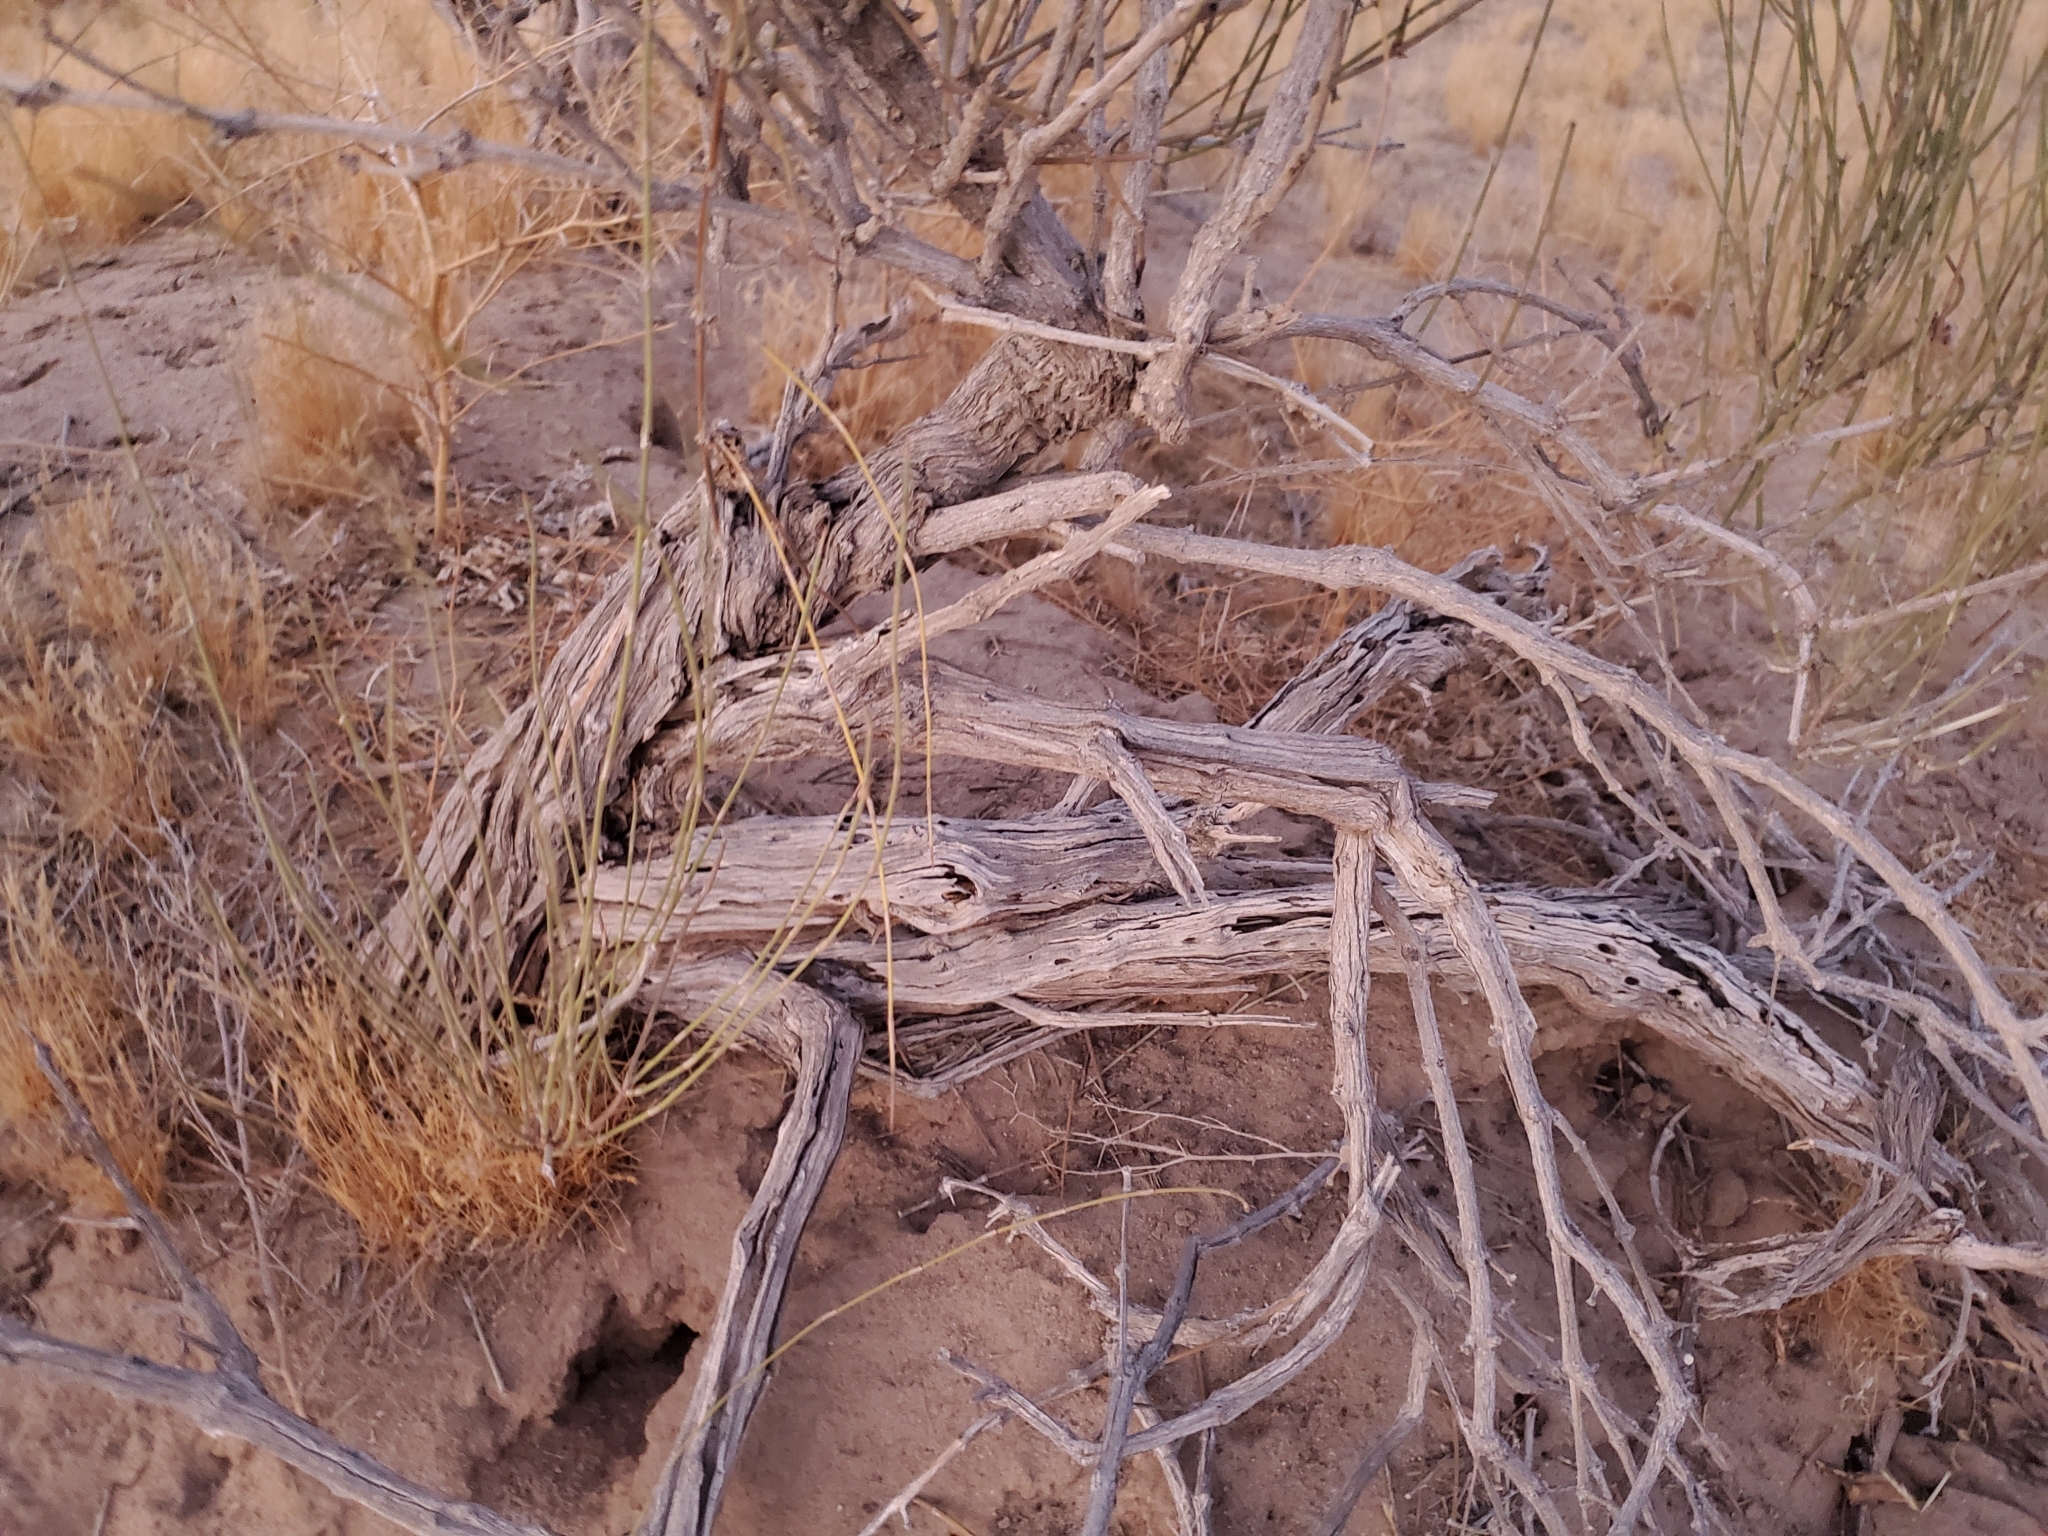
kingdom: Plantae
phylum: Tracheophyta
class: Gnetopsida
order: Ephedrales
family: Ephedraceae
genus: Ephedra
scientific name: Ephedra trifurca
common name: Mexican-tea
